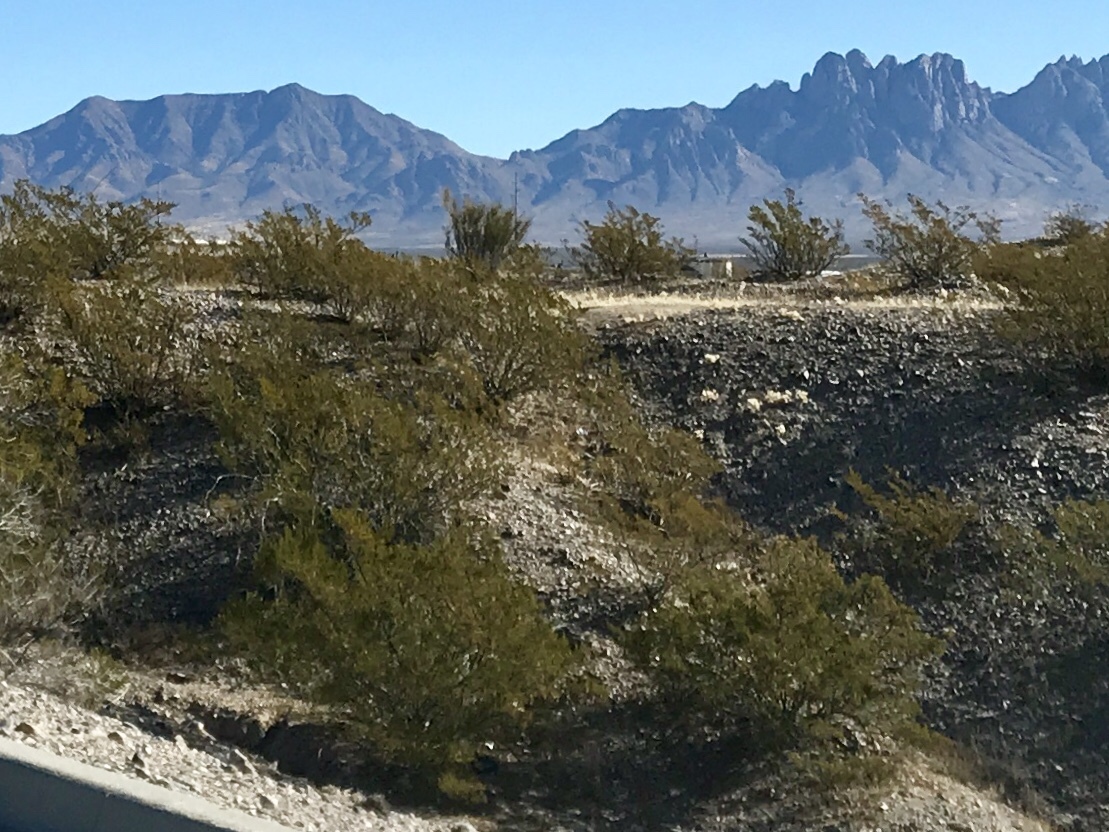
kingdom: Plantae
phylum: Tracheophyta
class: Magnoliopsida
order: Zygophyllales
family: Zygophyllaceae
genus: Larrea
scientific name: Larrea tridentata
